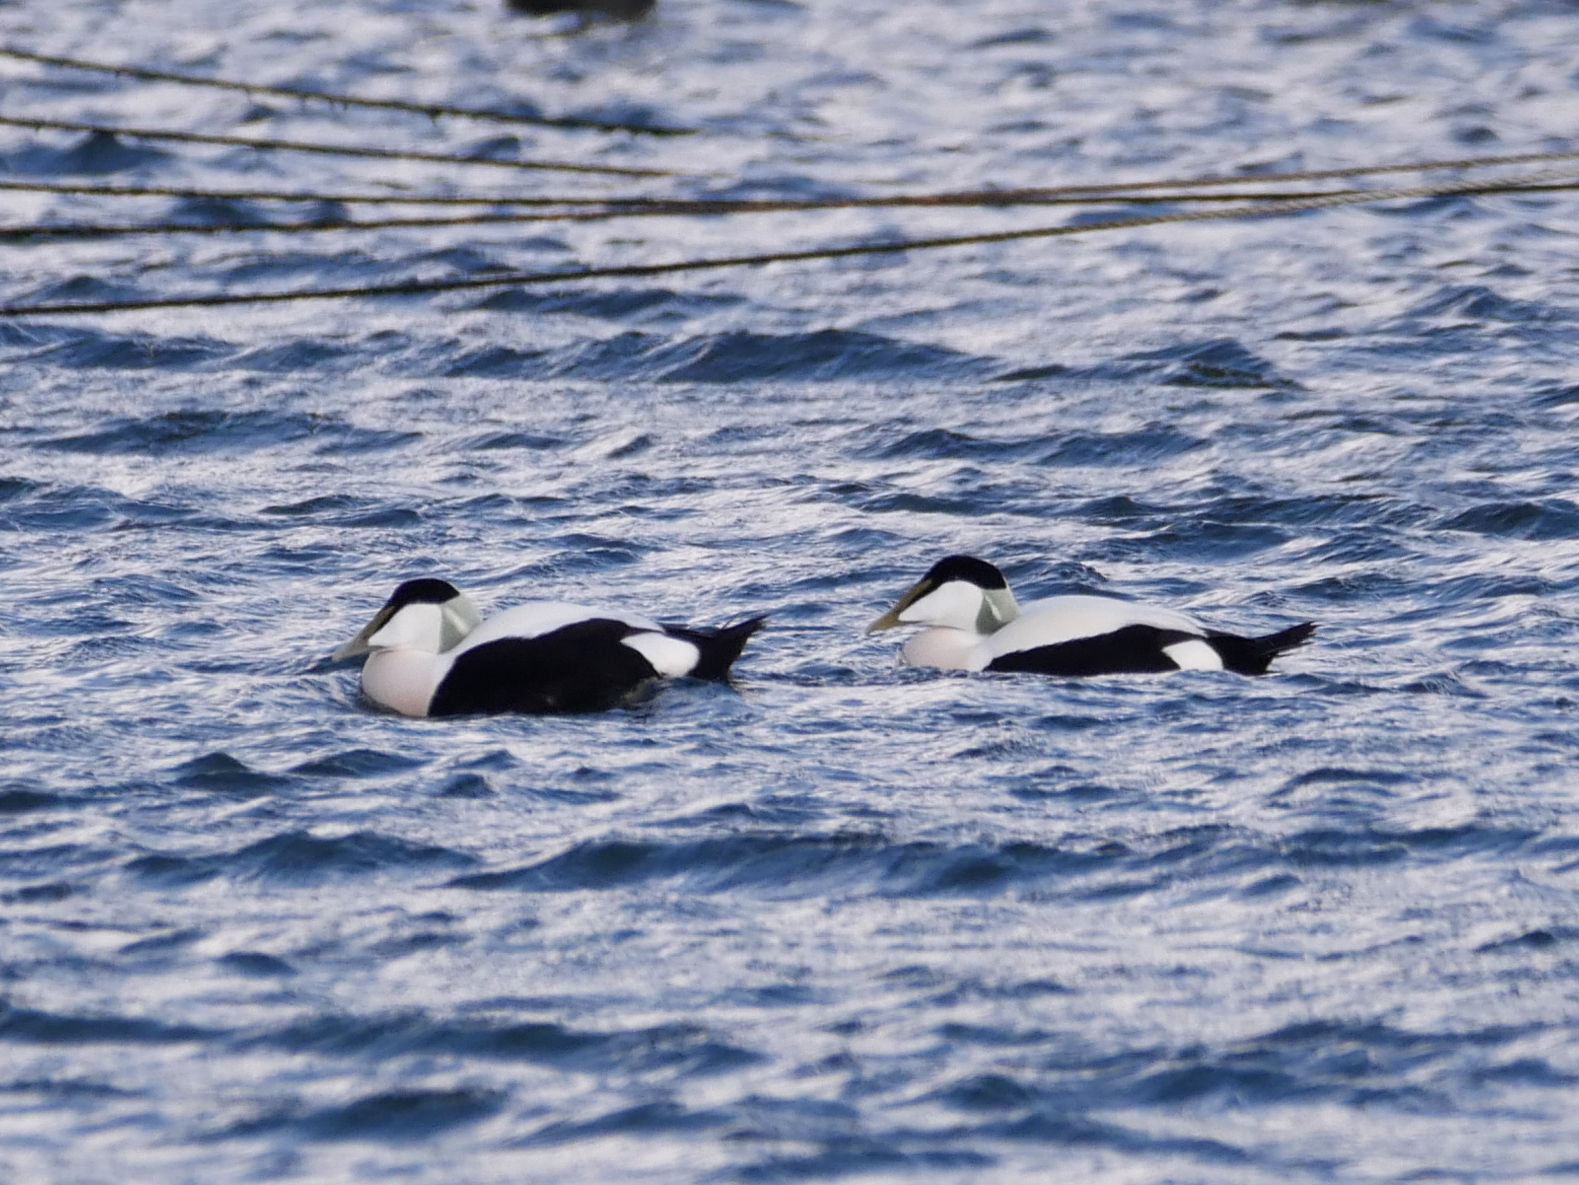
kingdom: Animalia
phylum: Chordata
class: Aves
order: Anseriformes
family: Anatidae
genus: Somateria
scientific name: Somateria mollissima
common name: Common eider
